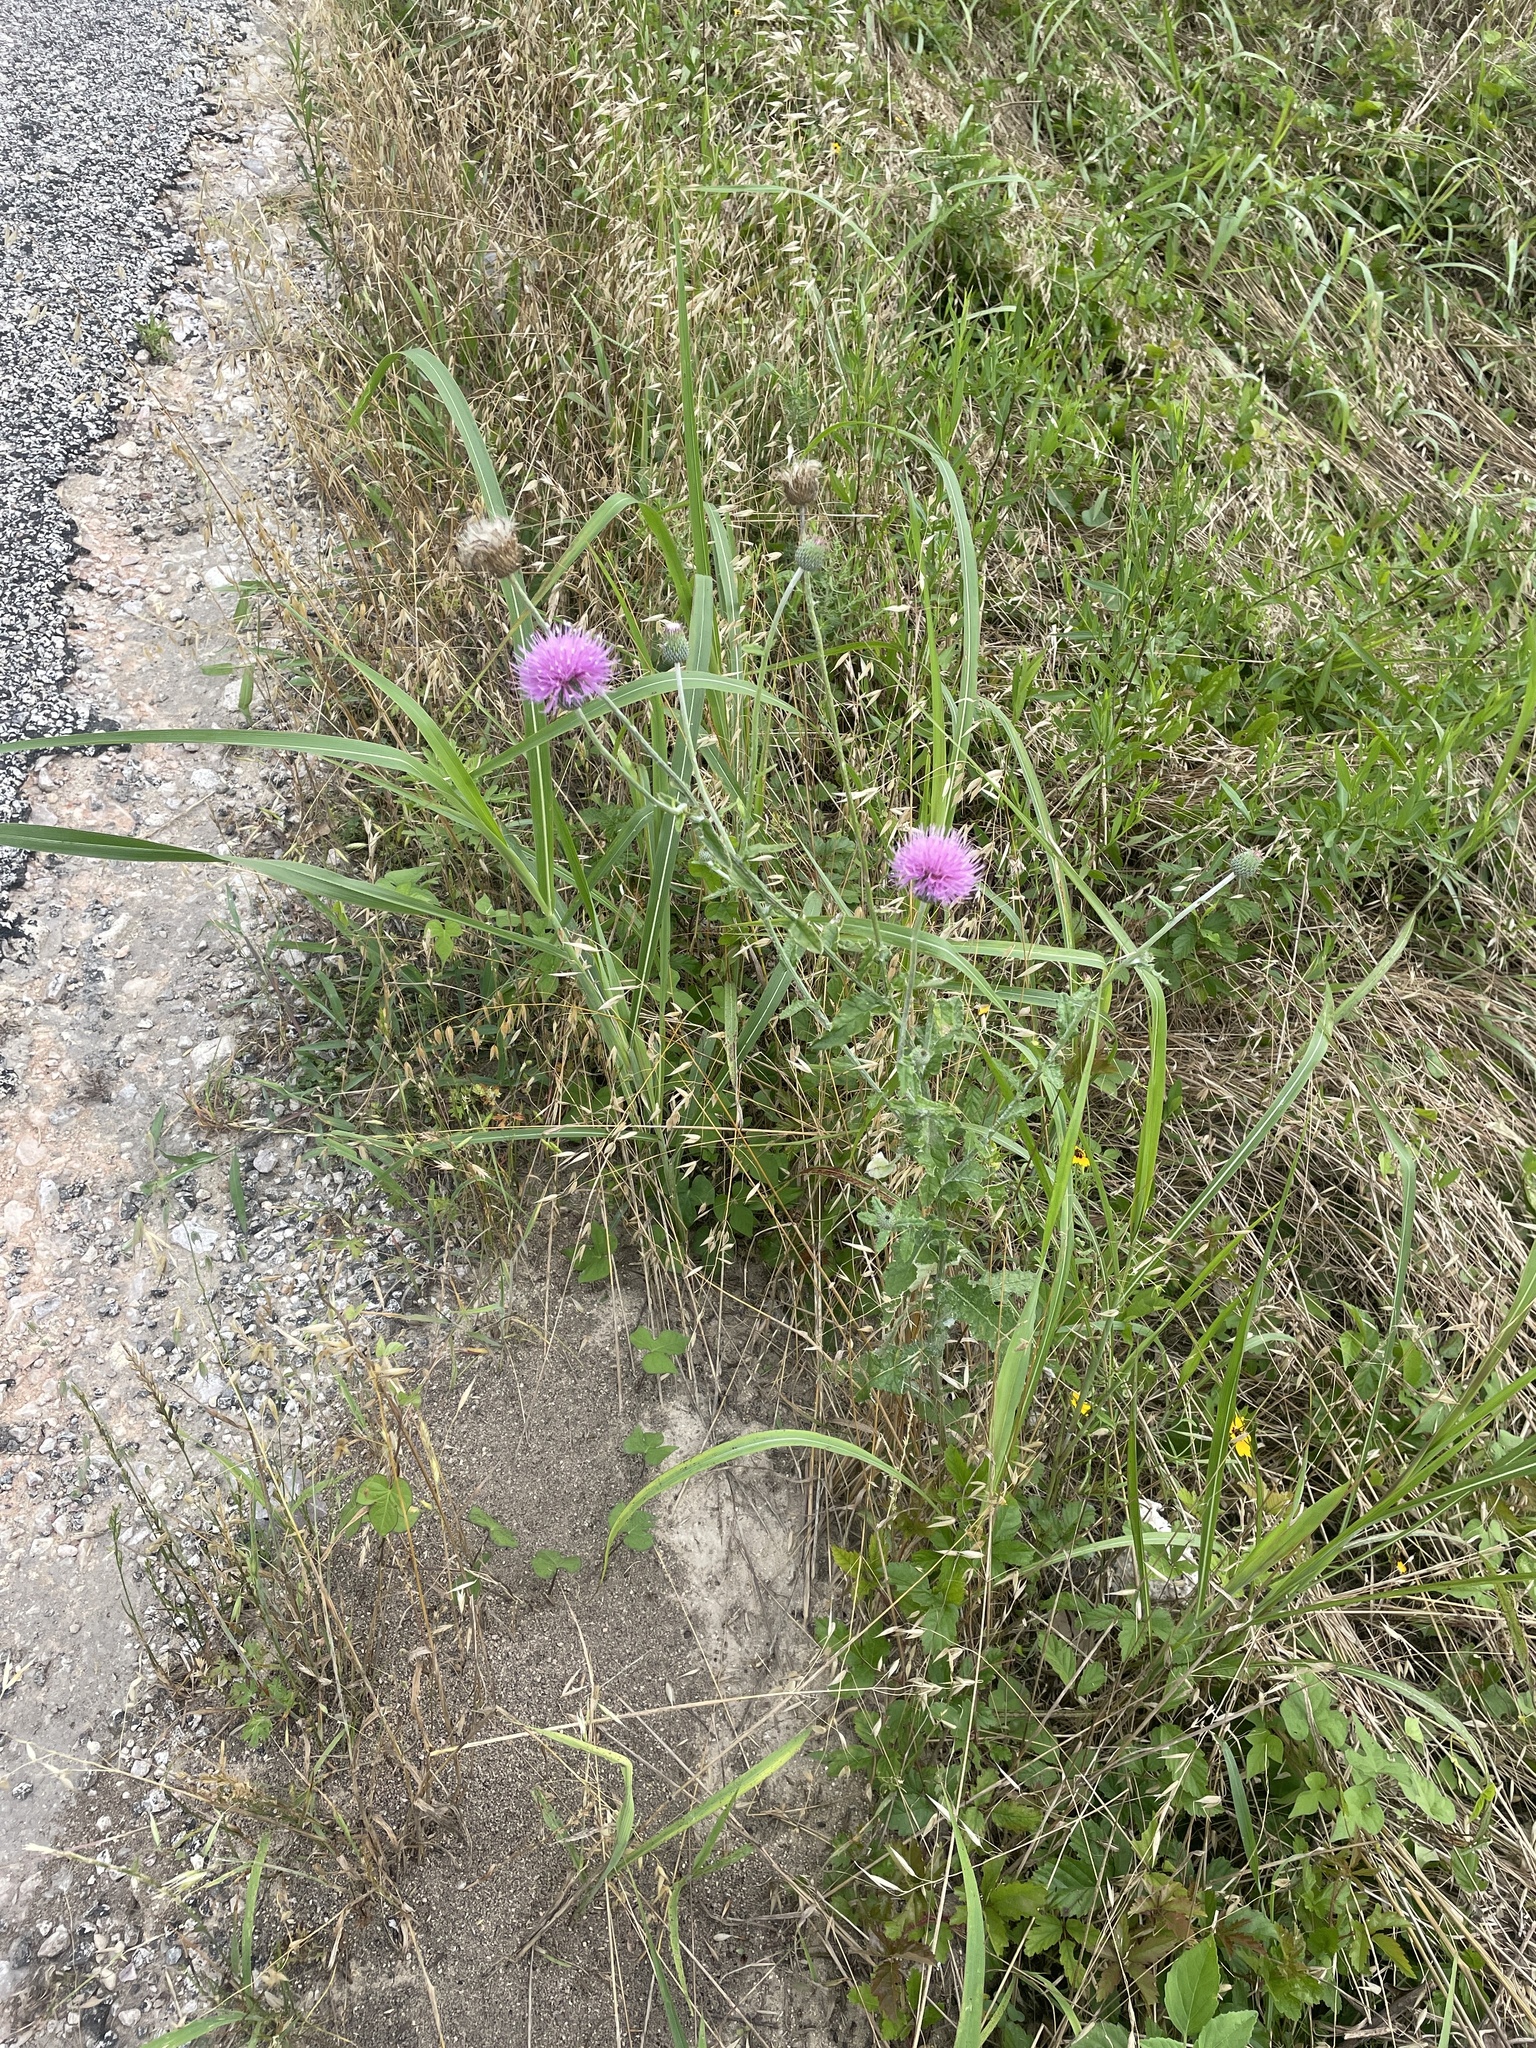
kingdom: Plantae
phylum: Tracheophyta
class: Magnoliopsida
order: Asterales
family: Asteraceae
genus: Cirsium
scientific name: Cirsium texanum
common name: Texas purple thistle
